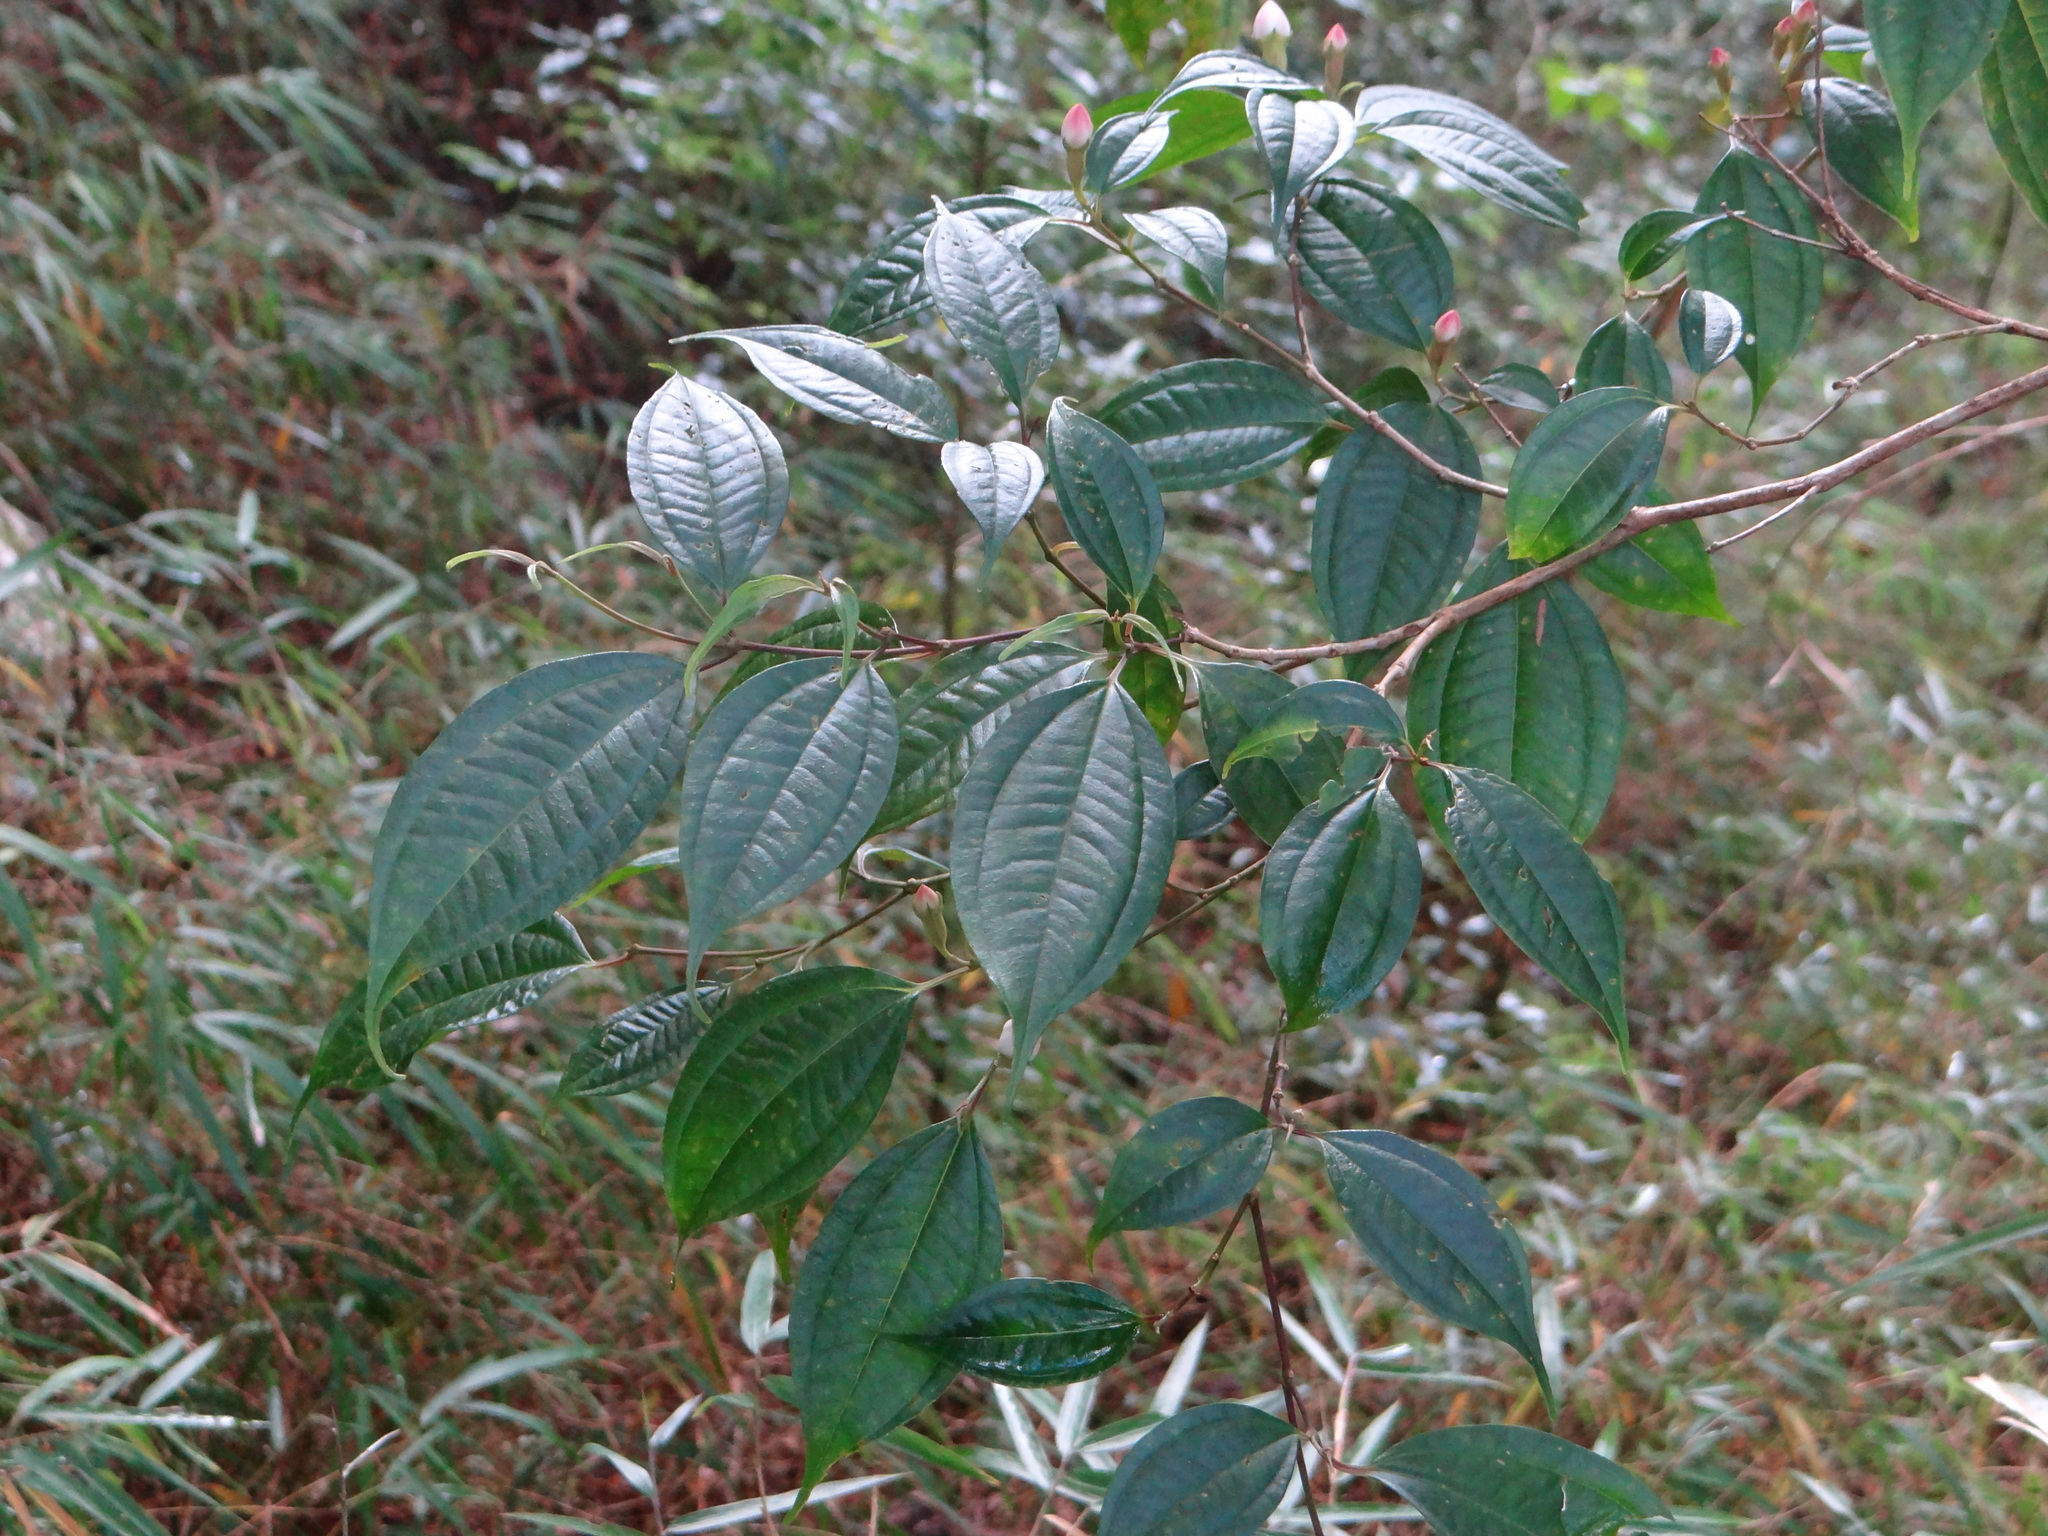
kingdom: Plantae
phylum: Tracheophyta
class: Magnoliopsida
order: Myrtales
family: Melastomataceae
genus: Barthea
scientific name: Barthea barthei
